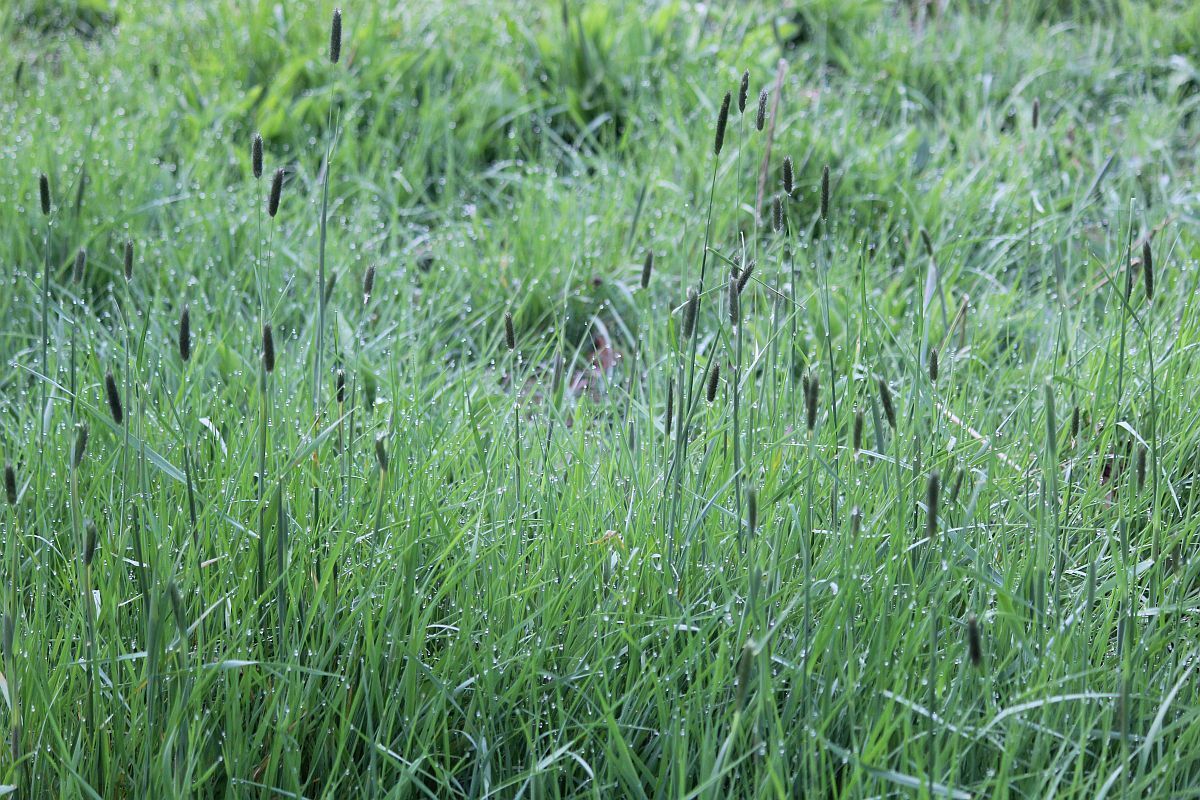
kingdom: Plantae
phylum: Tracheophyta
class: Liliopsida
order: Poales
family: Poaceae
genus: Alopecurus
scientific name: Alopecurus pratensis
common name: Meadow foxtail
